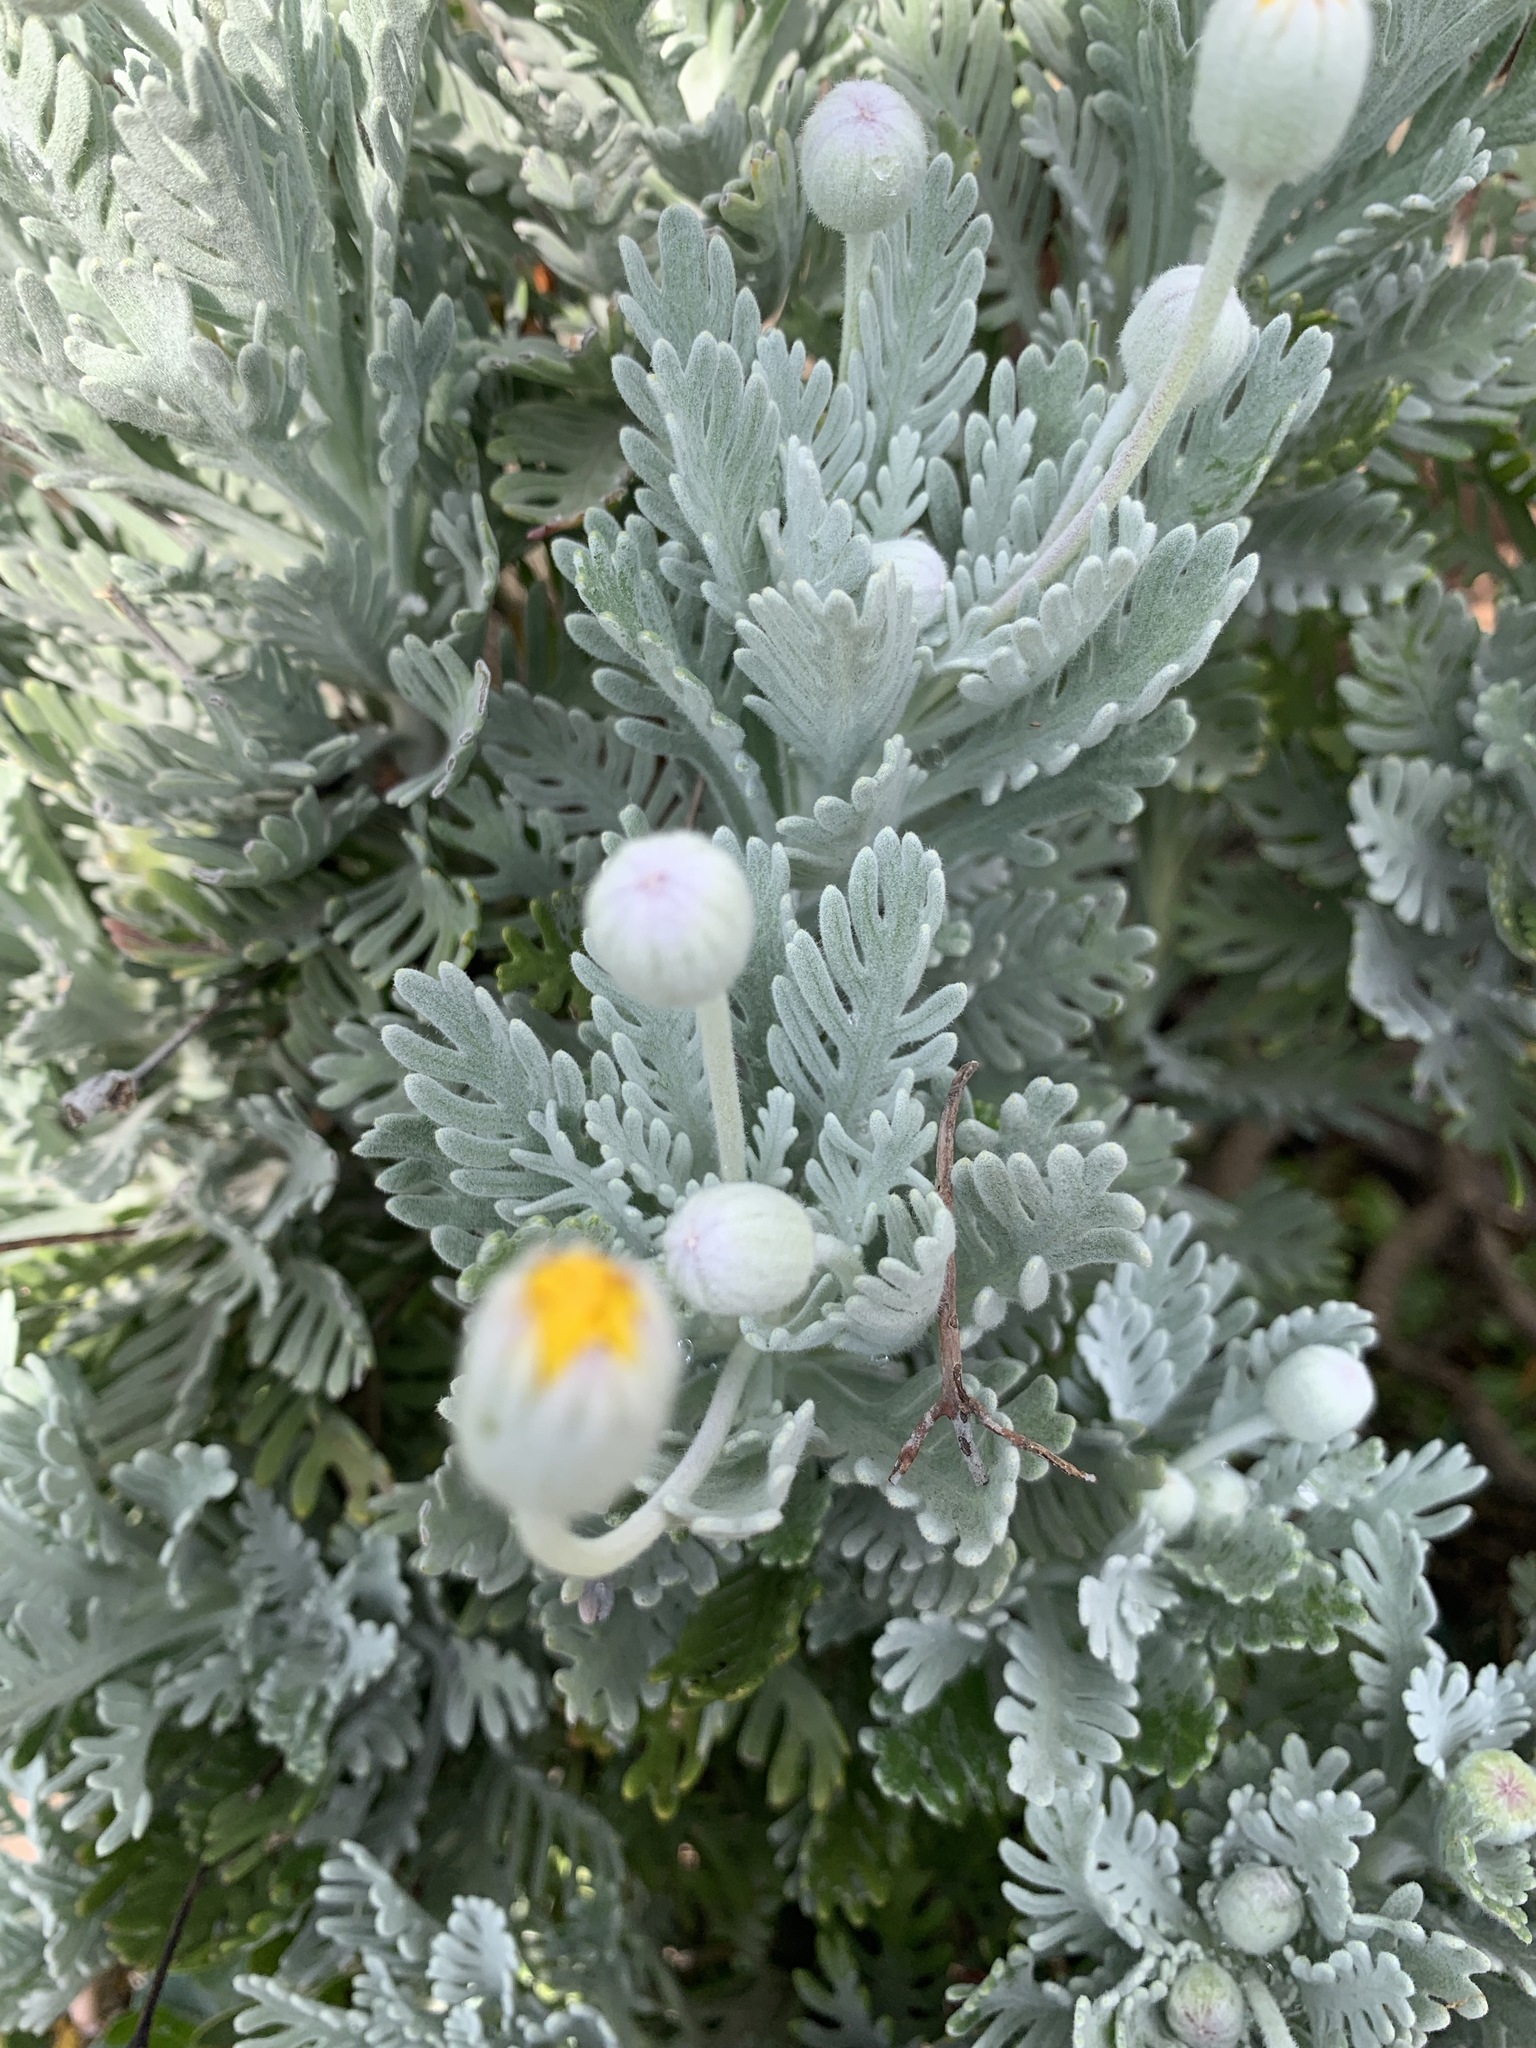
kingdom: Plantae
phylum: Tracheophyta
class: Magnoliopsida
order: Asterales
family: Asteraceae
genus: Euryops
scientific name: Euryops pectinatus
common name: Gray-leaf euryops
